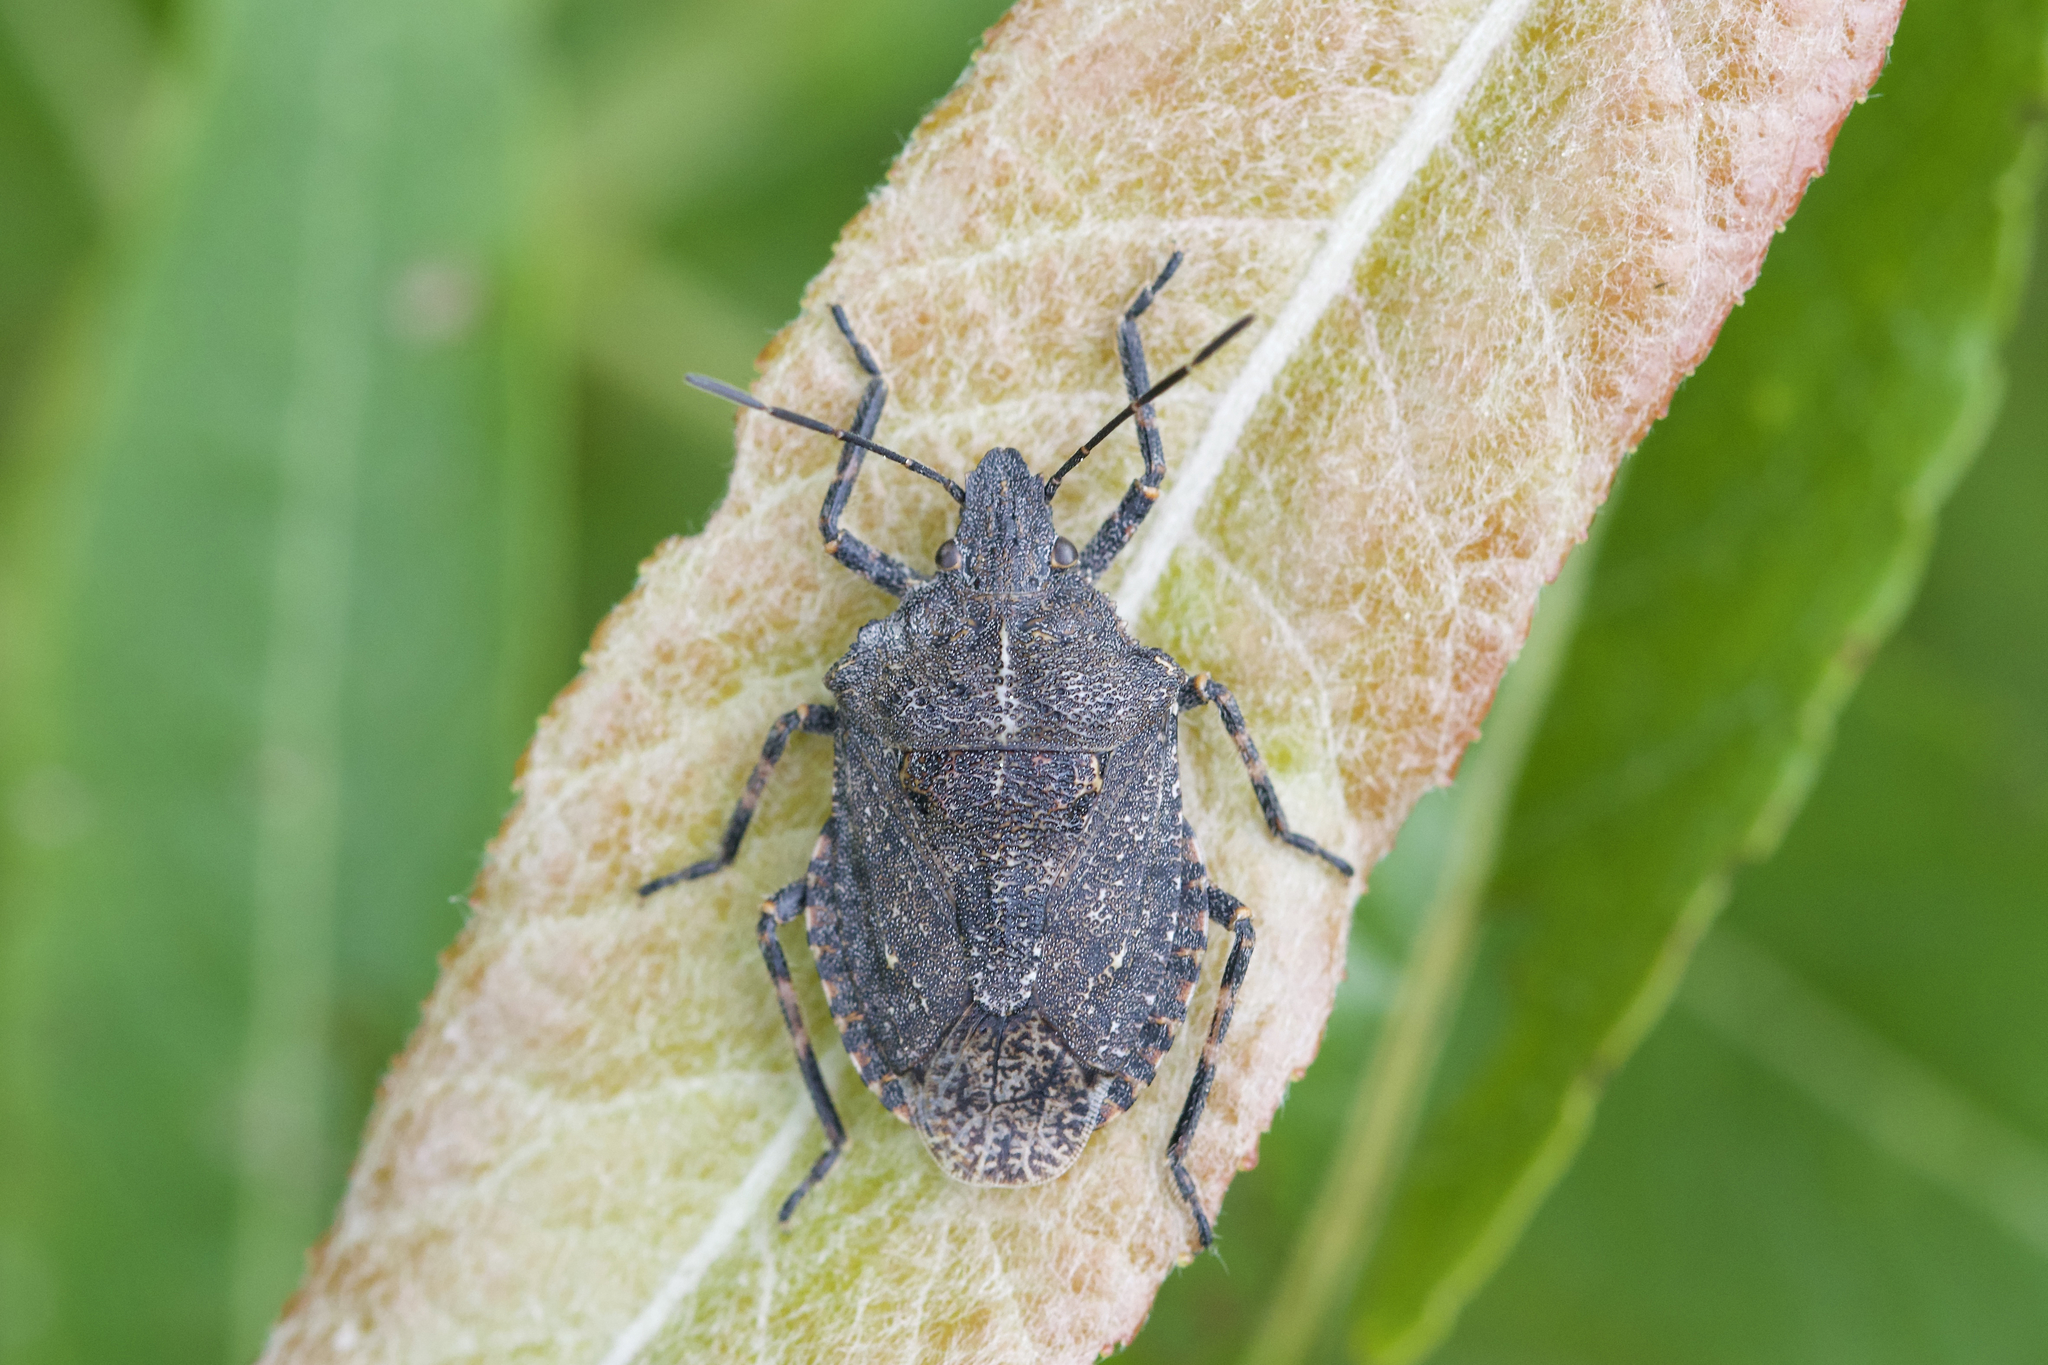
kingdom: Animalia
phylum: Arthropoda
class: Insecta
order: Hemiptera
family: Pentatomidae
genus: Brochymena
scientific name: Brochymena quadripustulata
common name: Four-humped stink bug
